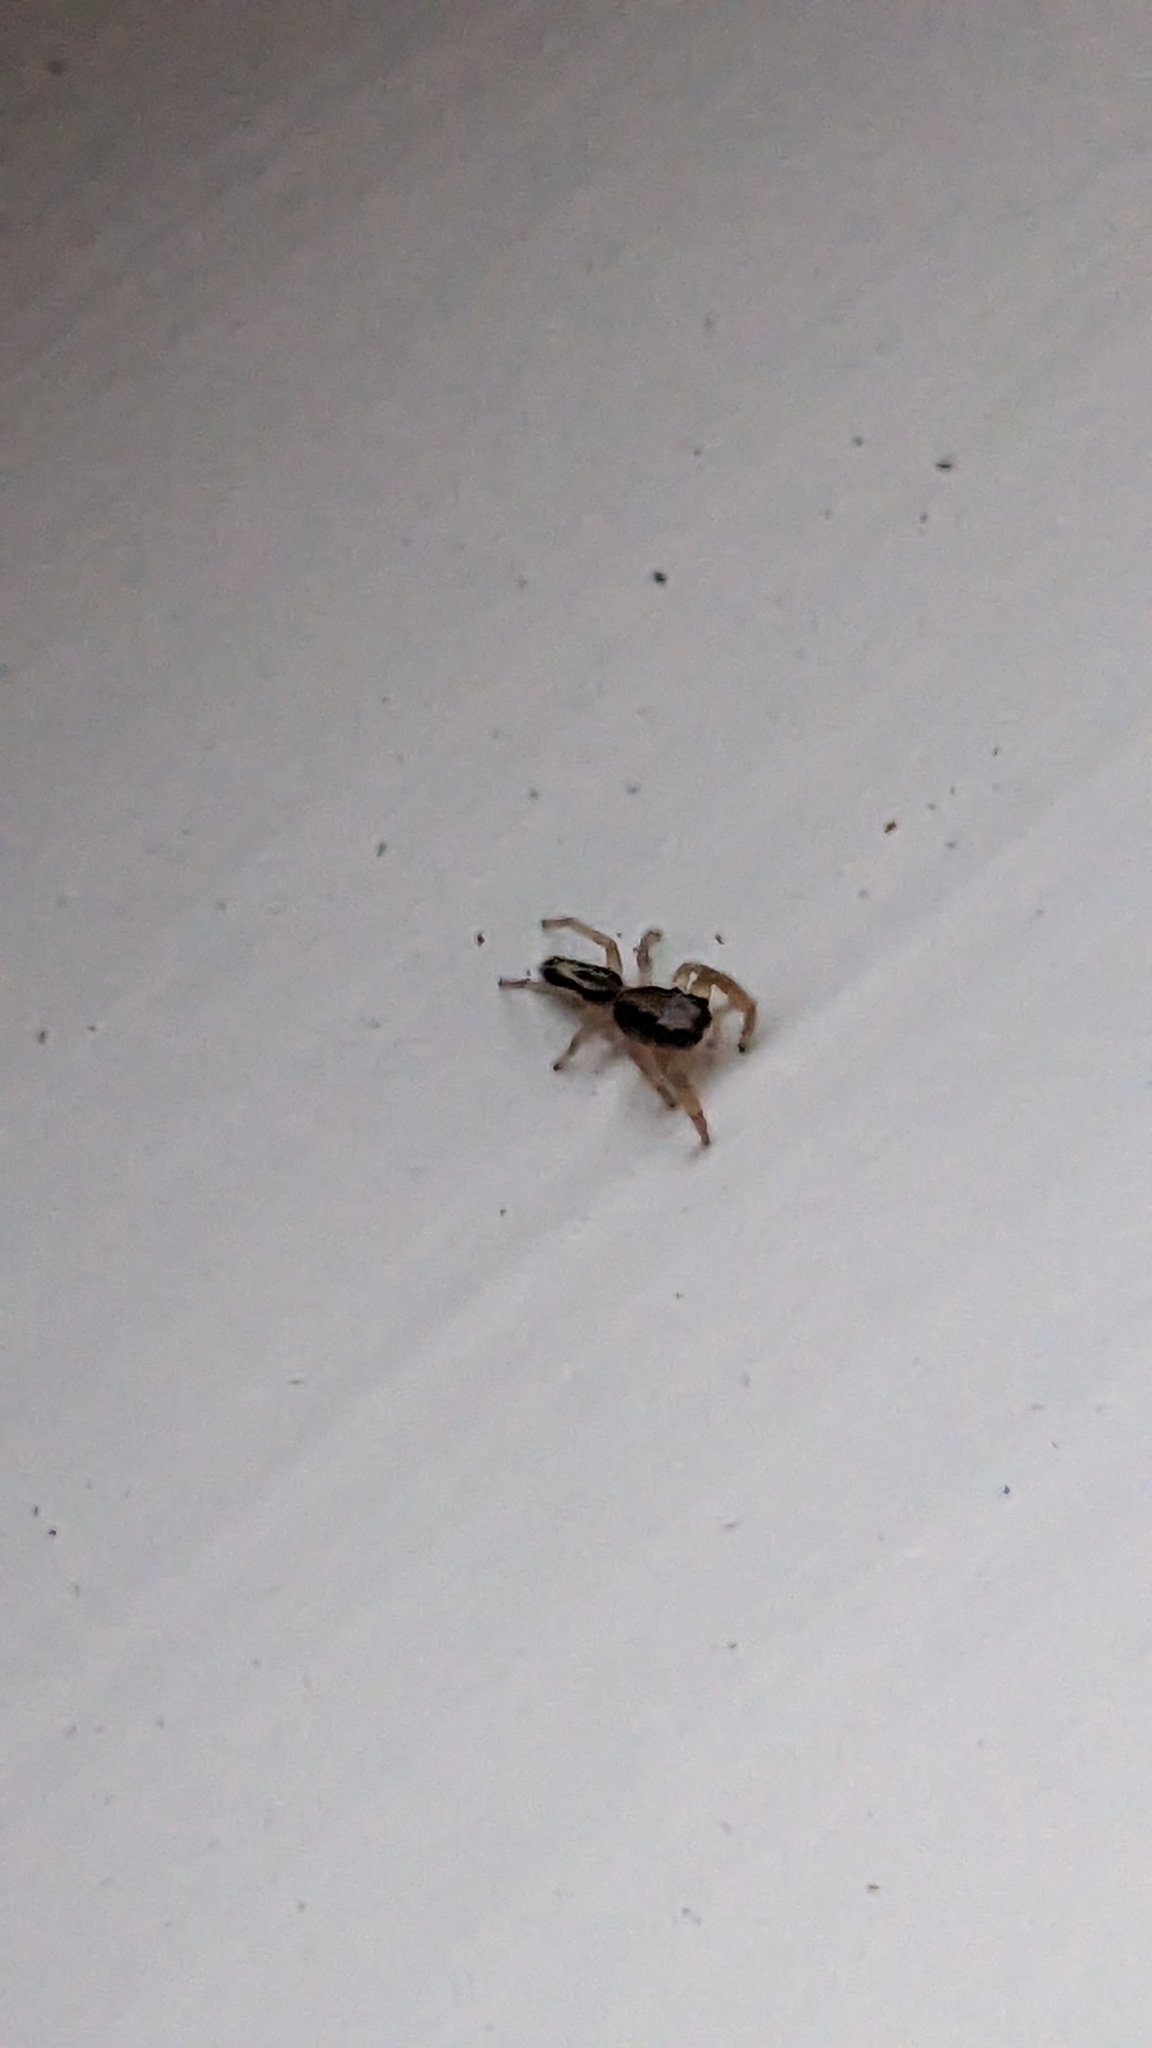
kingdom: Animalia
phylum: Arthropoda
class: Arachnida
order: Araneae
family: Salticidae
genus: Trite
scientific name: Trite planiceps
